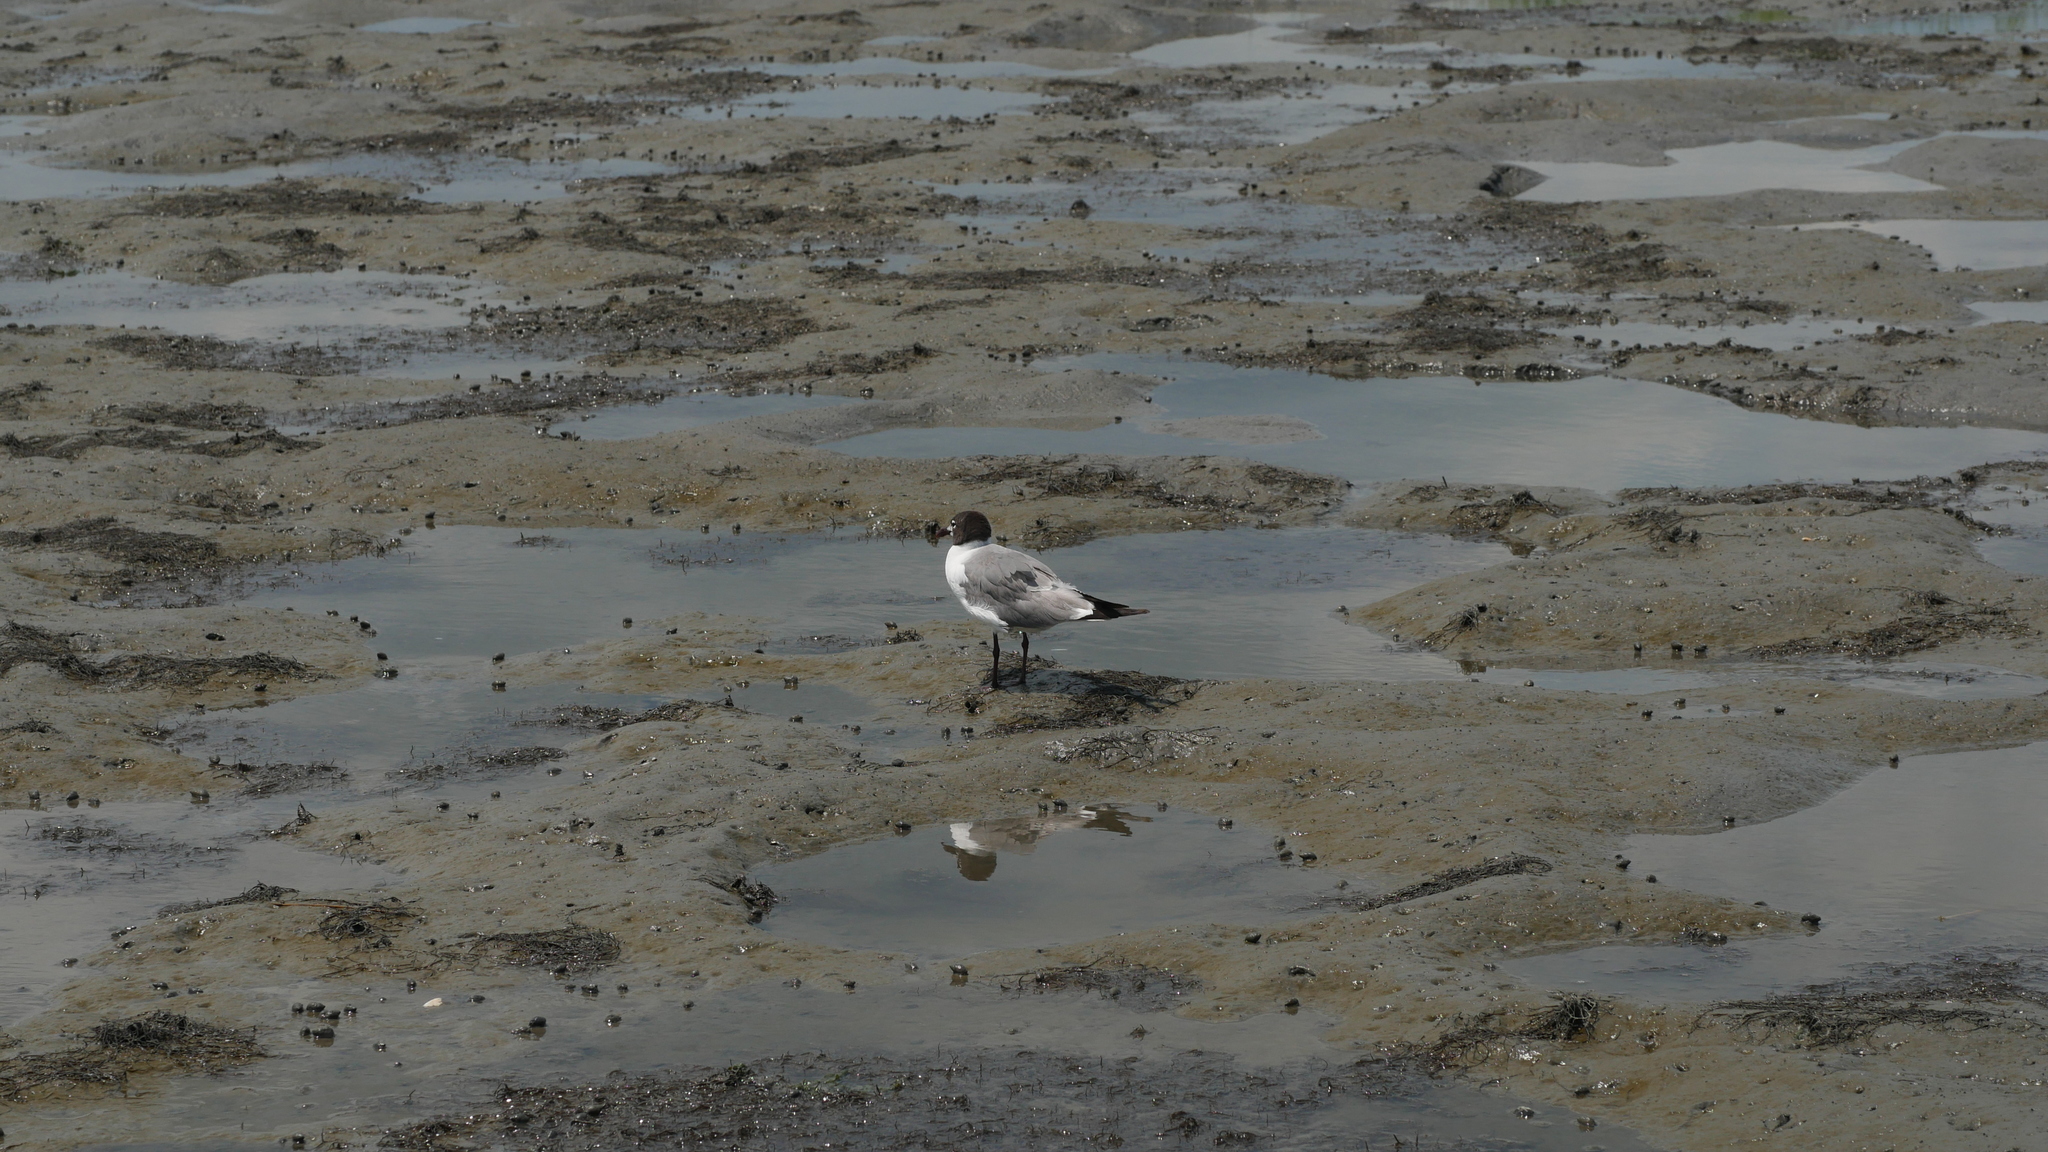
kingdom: Animalia
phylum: Chordata
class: Aves
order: Charadriiformes
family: Laridae
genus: Leucophaeus
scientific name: Leucophaeus atricilla
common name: Laughing gull
